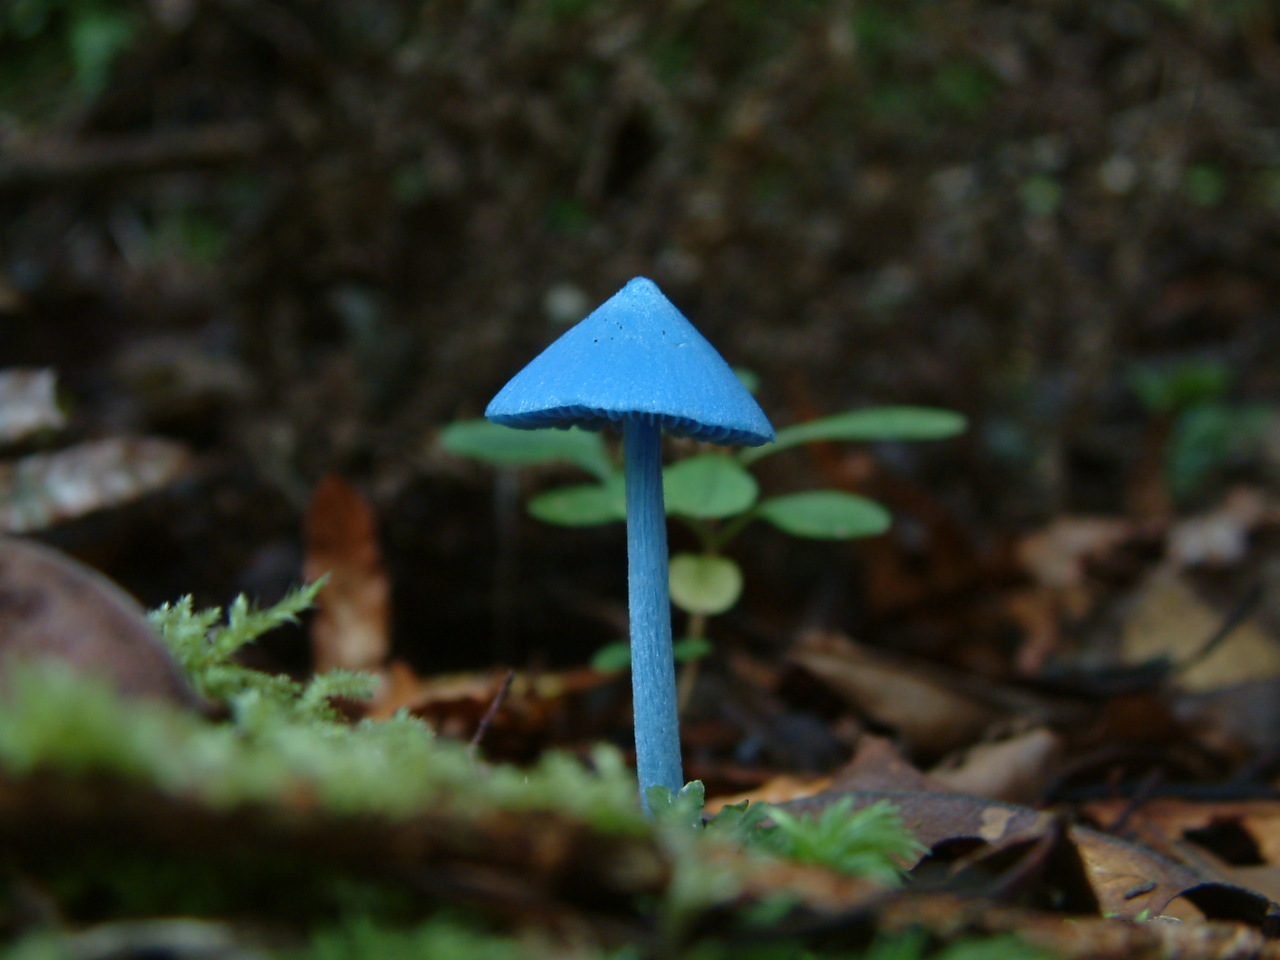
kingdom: Fungi
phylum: Basidiomycota
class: Agaricomycetes
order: Agaricales
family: Entolomataceae
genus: Entoloma
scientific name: Entoloma hochstetteri
